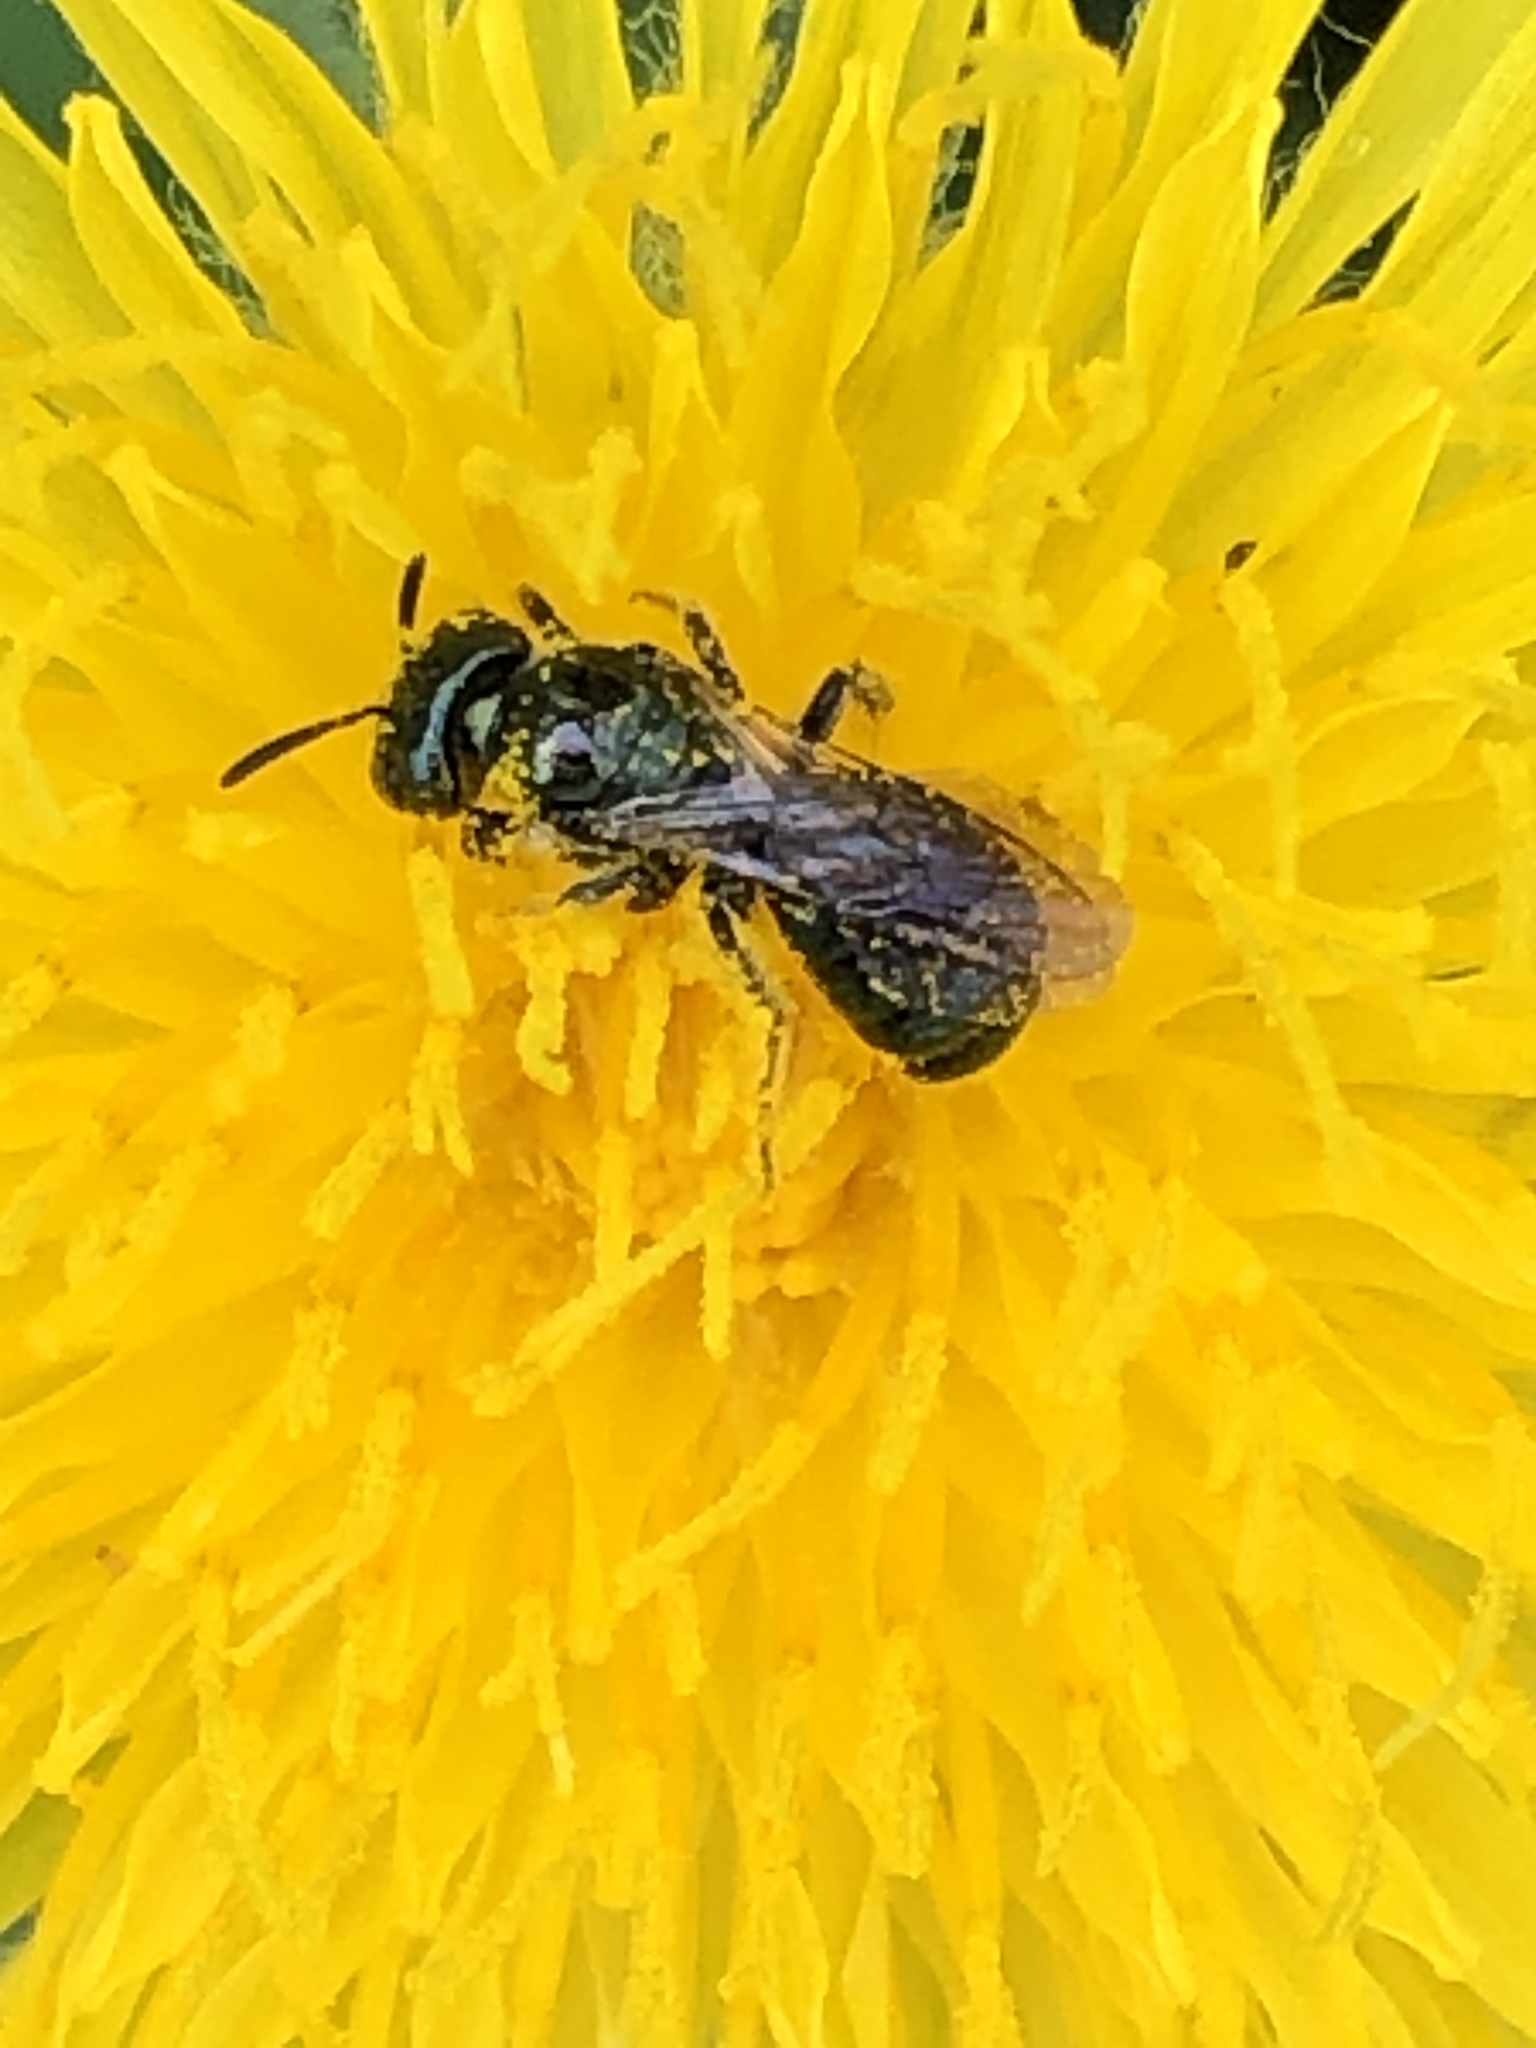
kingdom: Animalia
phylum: Arthropoda
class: Insecta
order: Hymenoptera
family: Apidae
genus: Zadontomerus
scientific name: Zadontomerus
